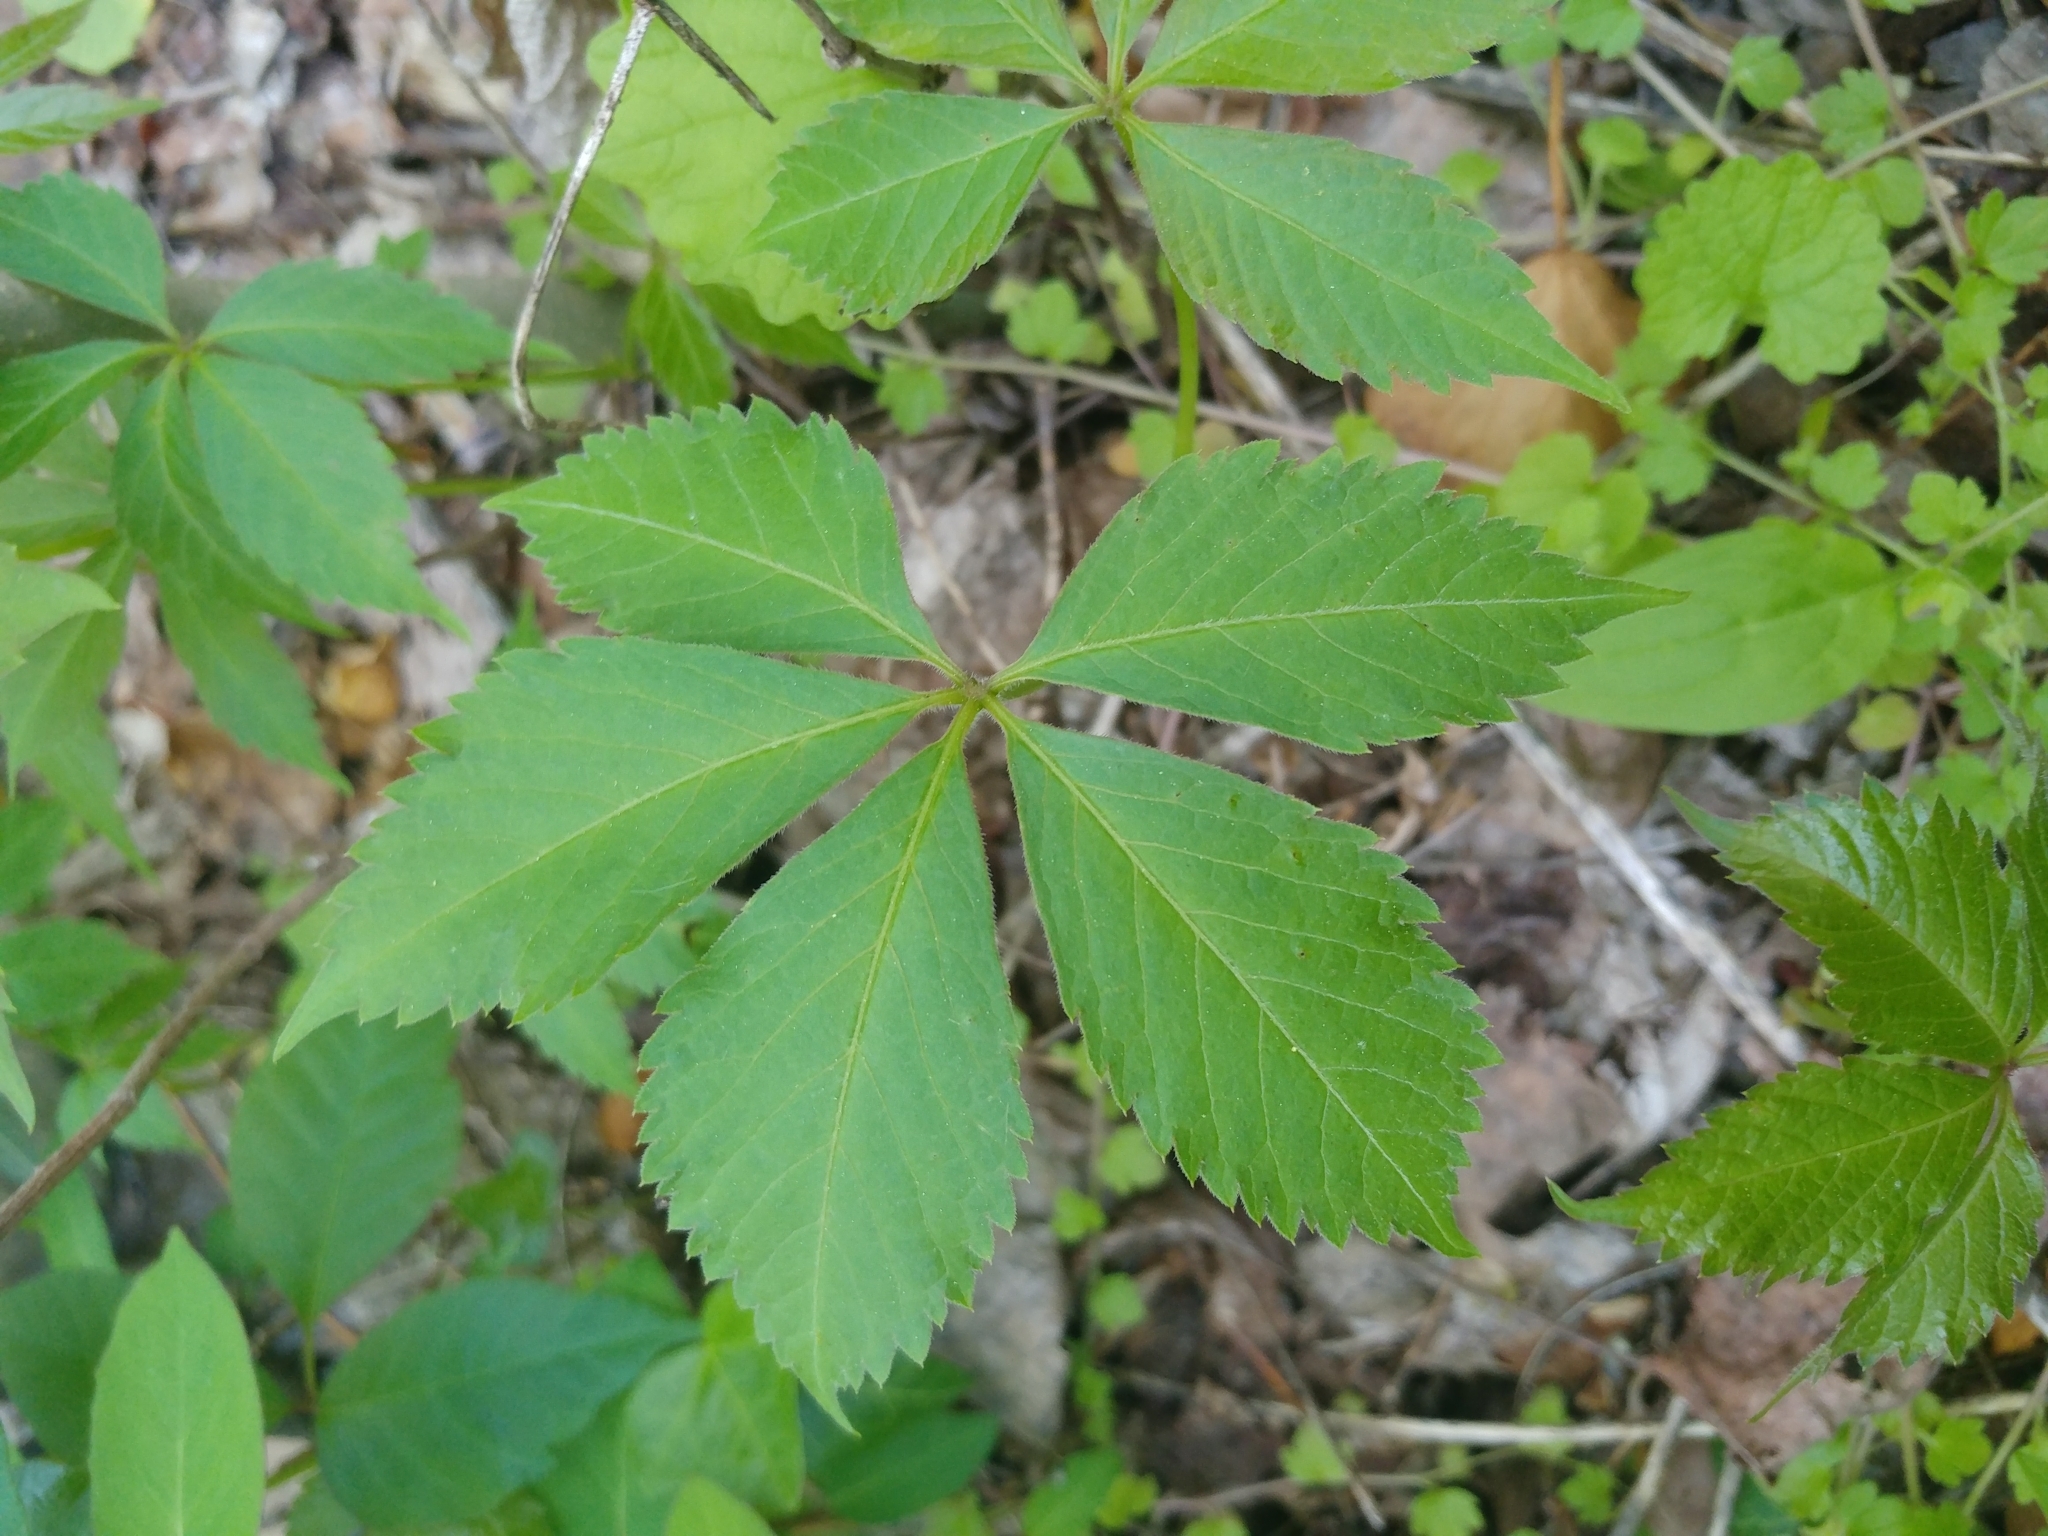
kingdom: Plantae
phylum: Tracheophyta
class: Magnoliopsida
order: Vitales
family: Vitaceae
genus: Parthenocissus
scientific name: Parthenocissus quinquefolia
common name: Virginia-creeper
